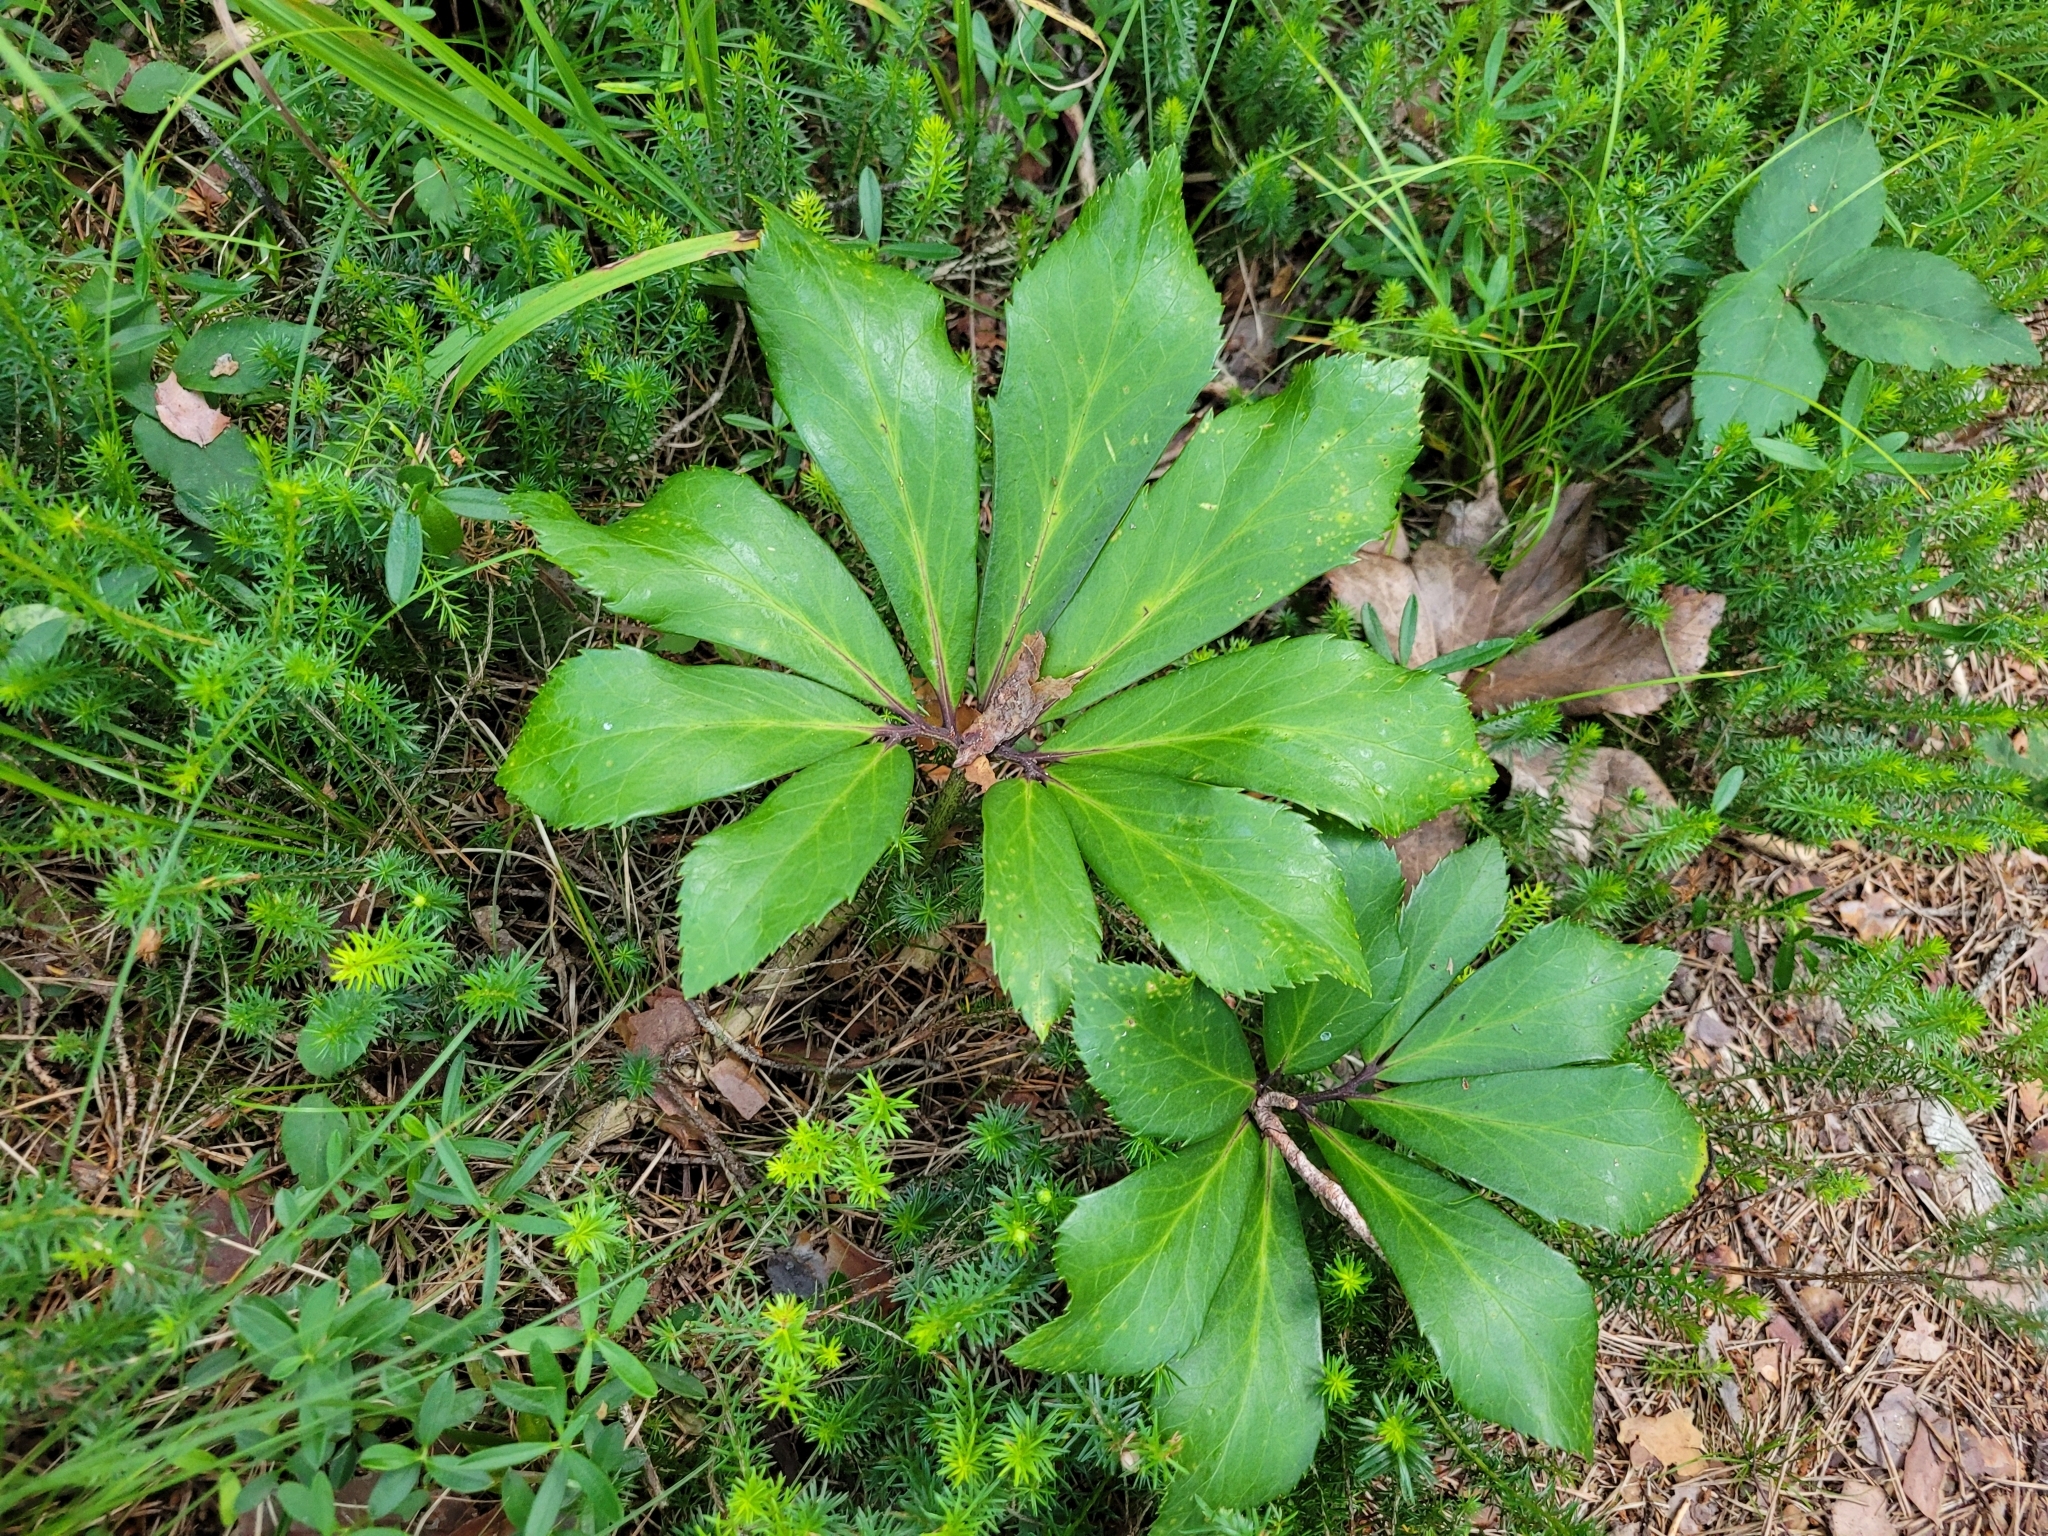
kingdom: Plantae
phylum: Tracheophyta
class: Magnoliopsida
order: Ranunculales
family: Ranunculaceae
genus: Helleborus
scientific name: Helleborus niger
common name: Black hellebore
